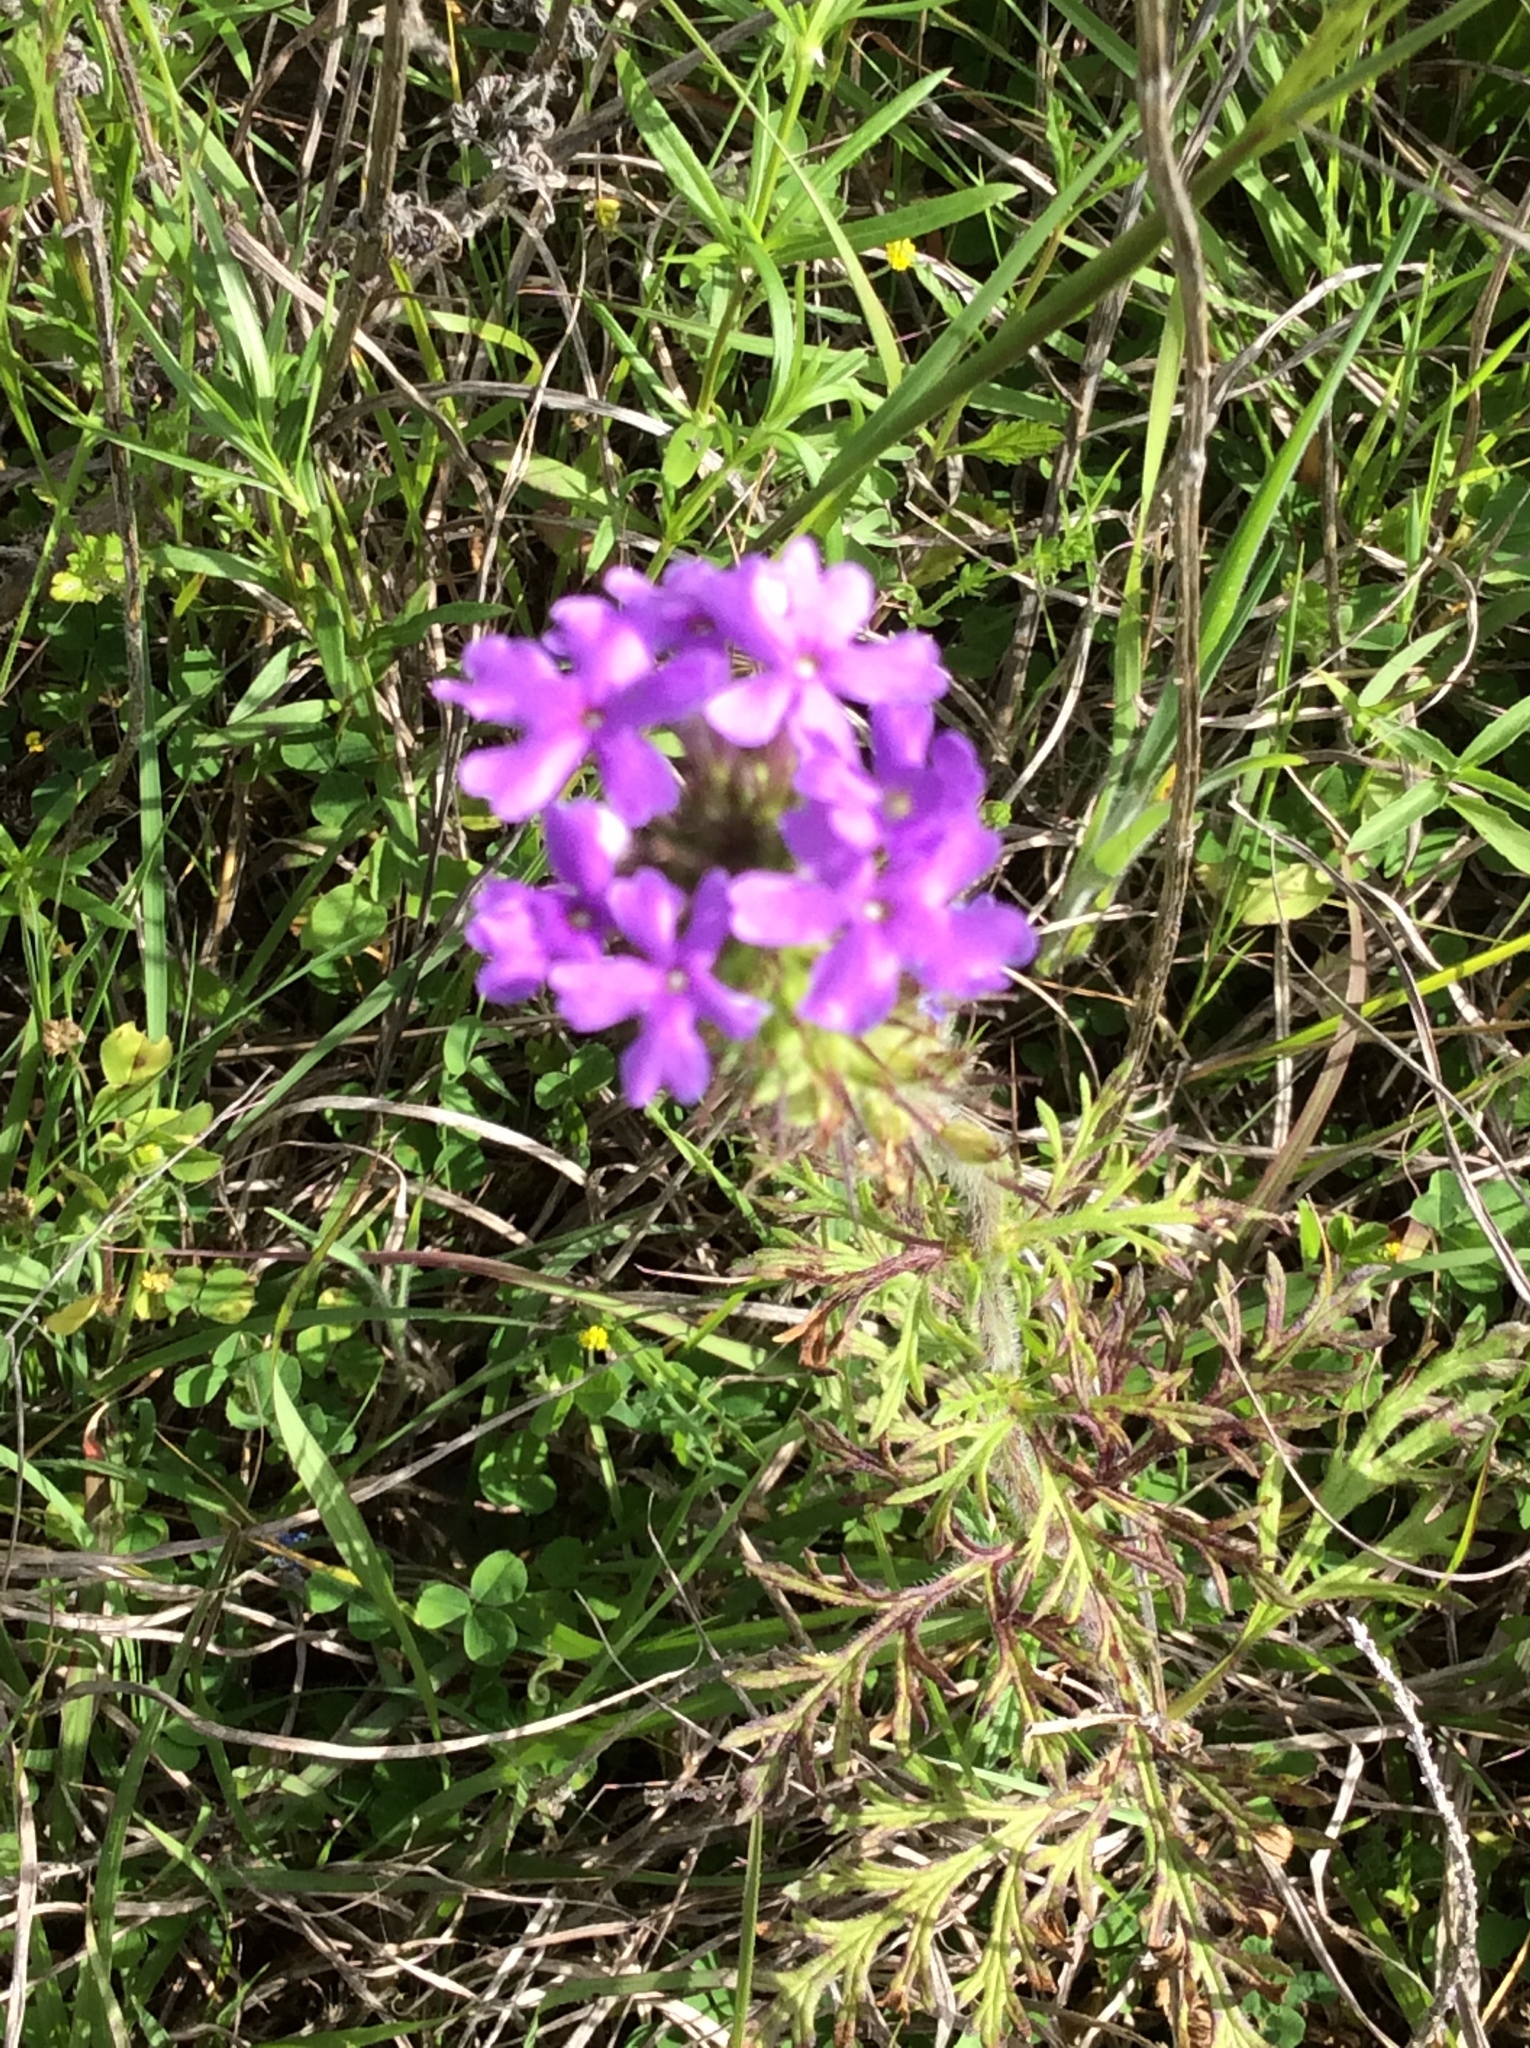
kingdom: Plantae
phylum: Tracheophyta
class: Magnoliopsida
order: Lamiales
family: Verbenaceae
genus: Verbena
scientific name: Verbena bipinnatifida
